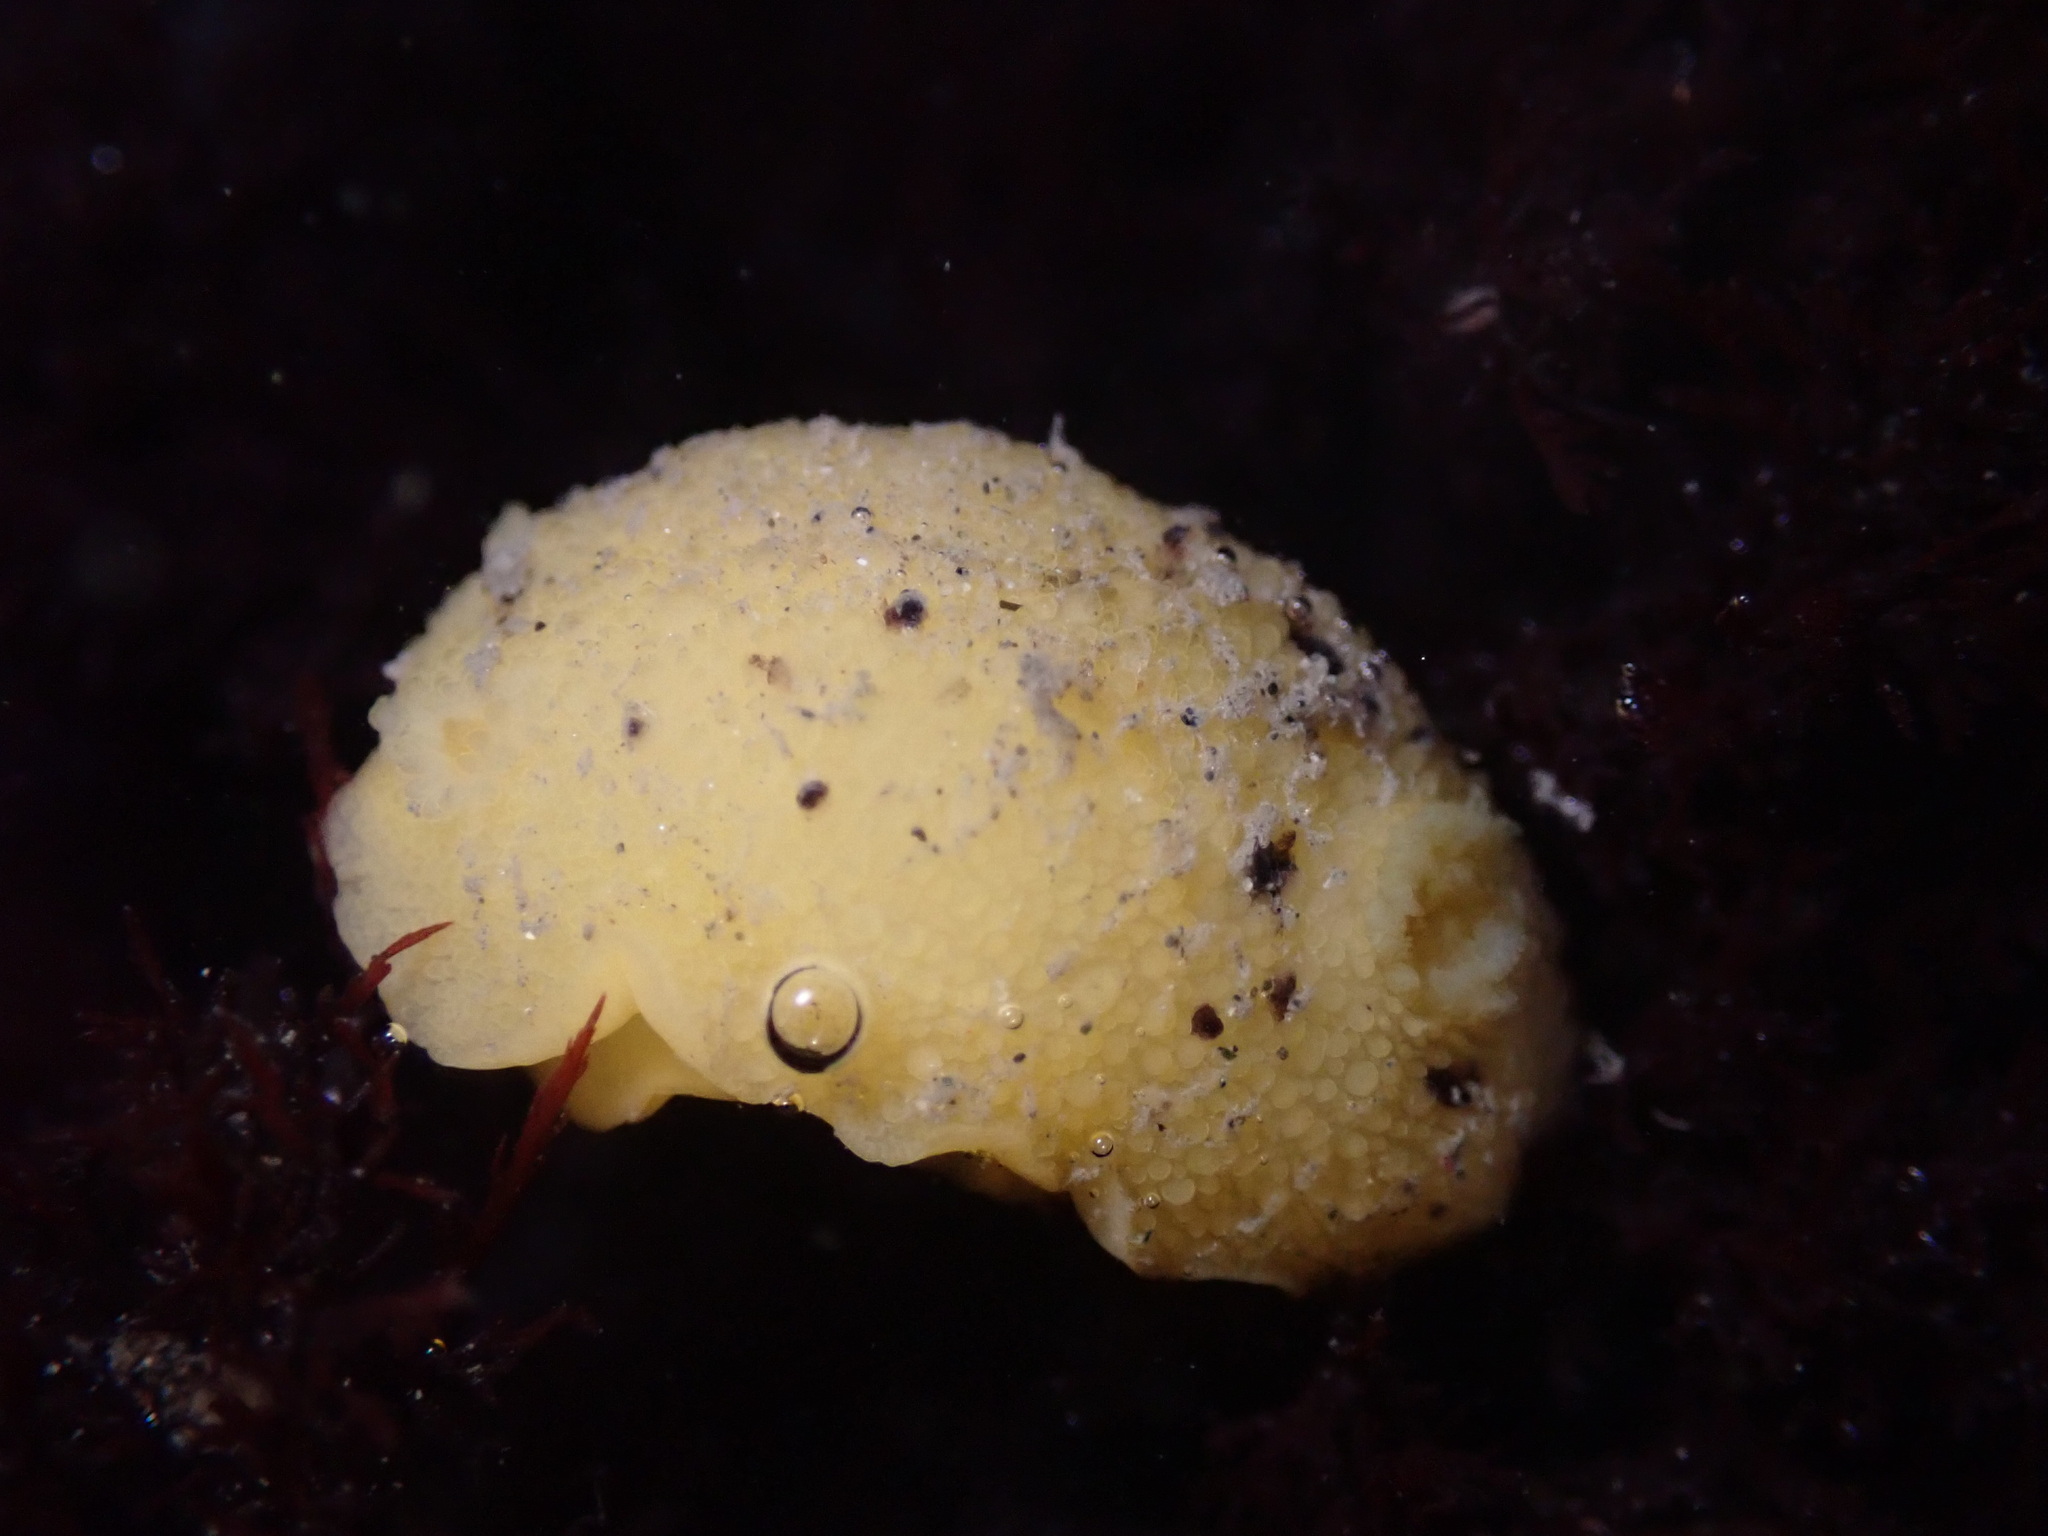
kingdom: Animalia
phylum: Mollusca
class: Gastropoda
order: Nudibranchia
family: Dorididae
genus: Doris
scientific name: Doris montereyensis
